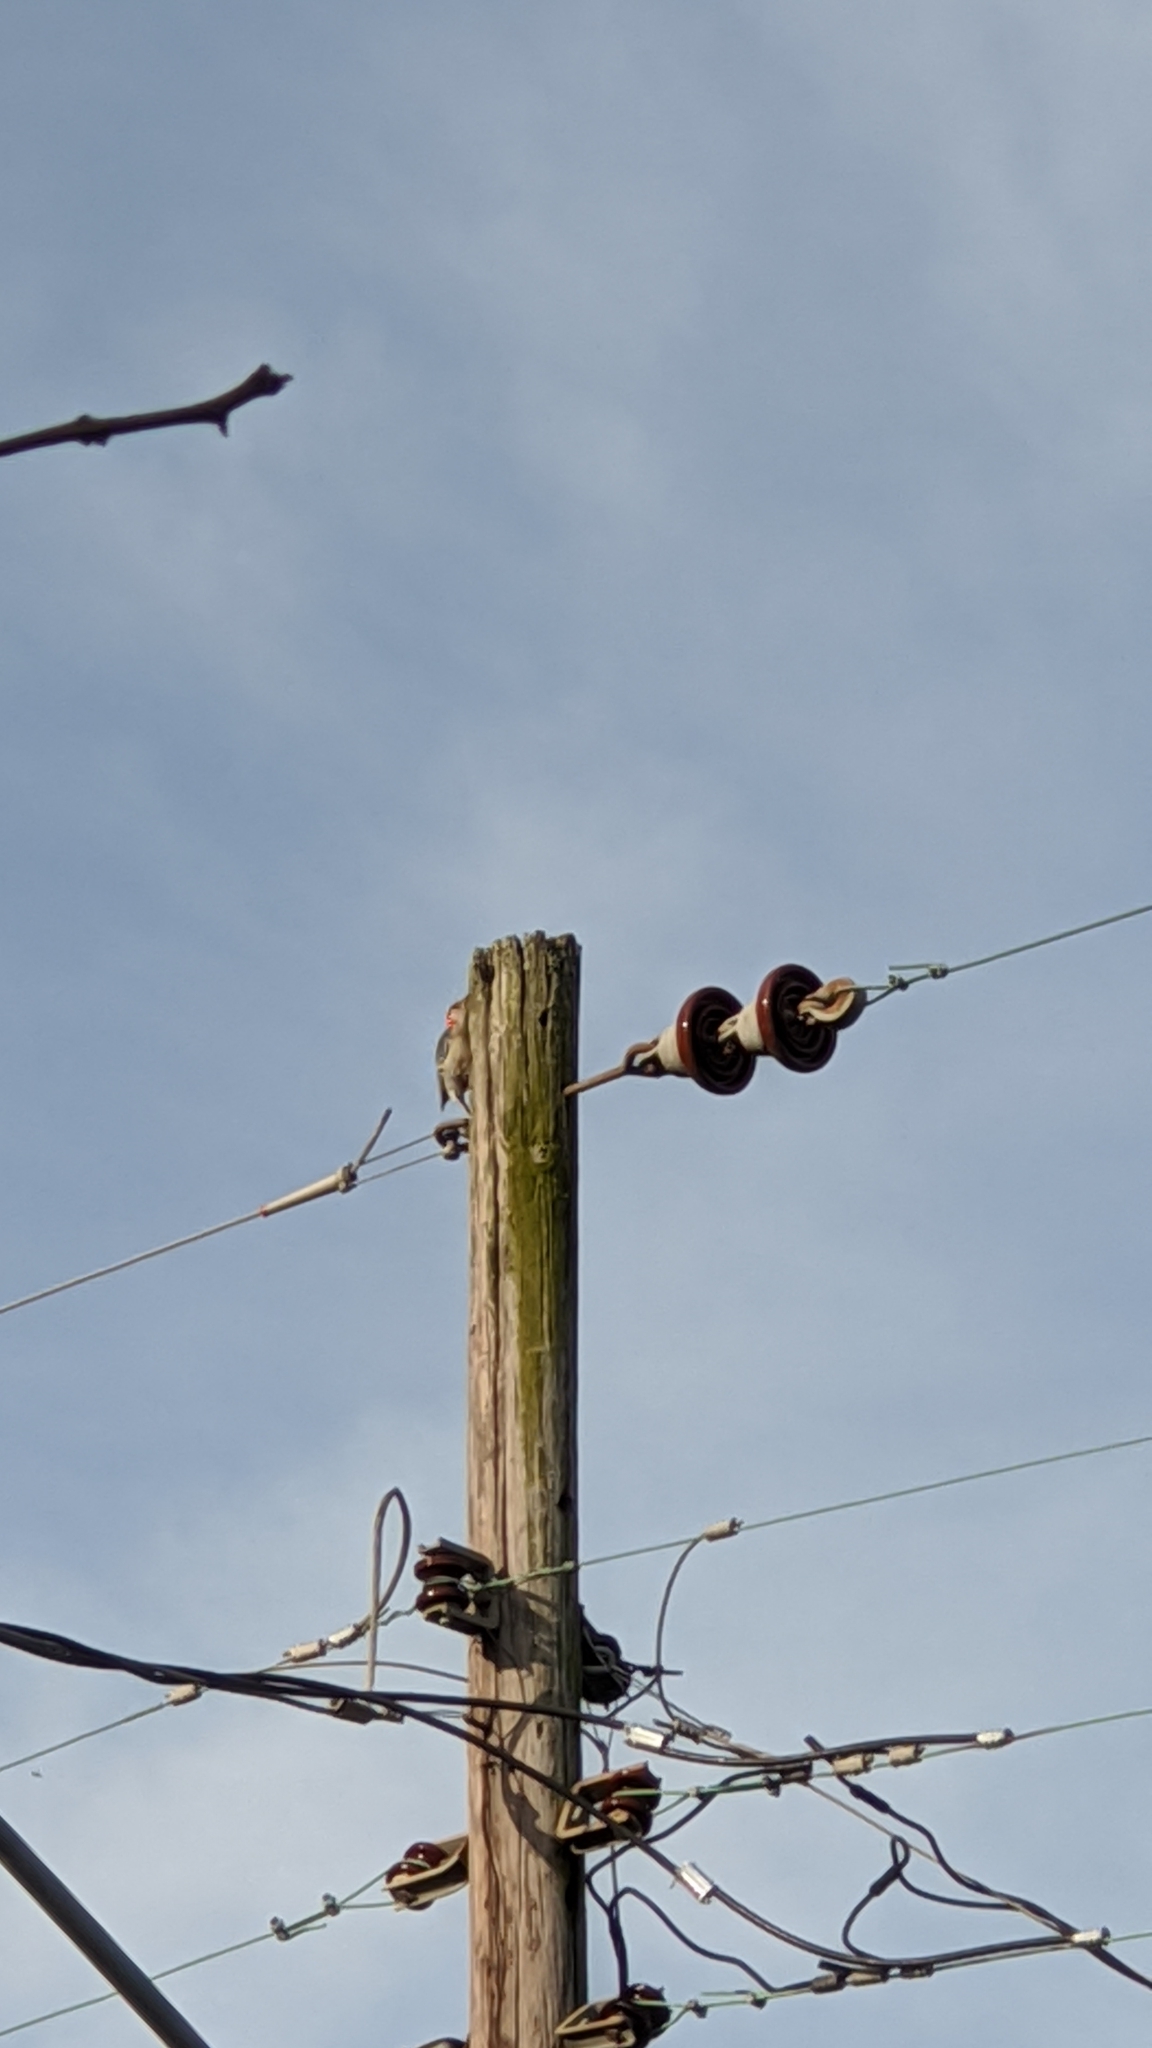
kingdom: Animalia
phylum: Chordata
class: Aves
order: Piciformes
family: Picidae
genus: Melanerpes
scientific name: Melanerpes carolinus
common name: Red-bellied woodpecker
